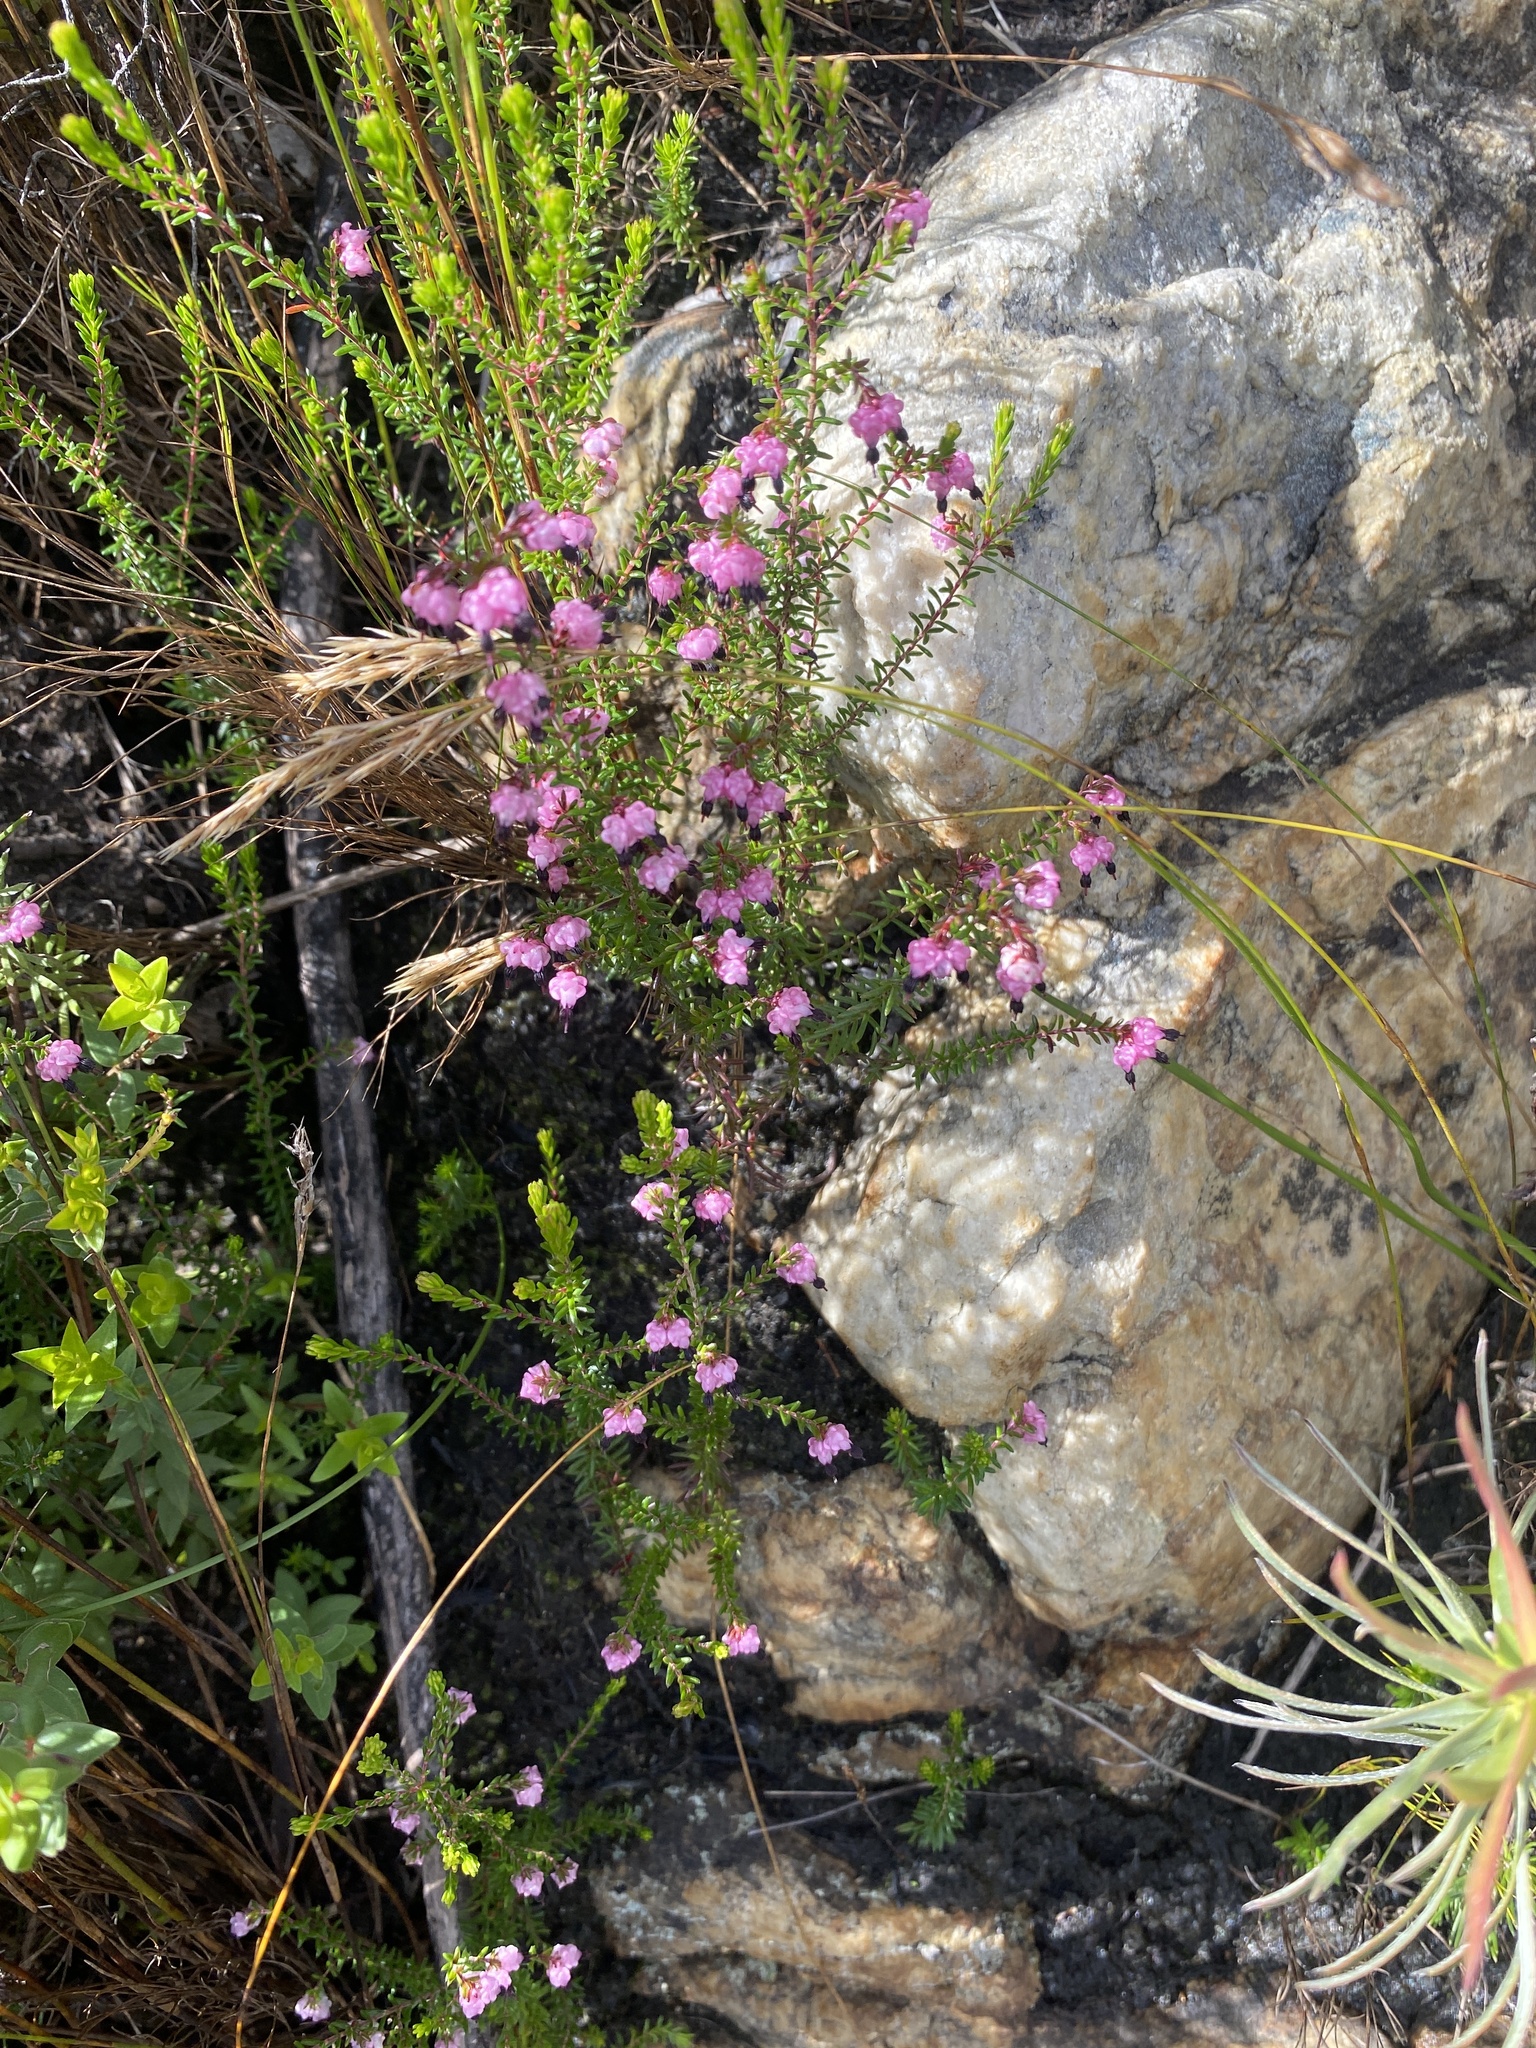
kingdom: Plantae
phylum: Tracheophyta
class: Magnoliopsida
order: Ericales
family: Ericaceae
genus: Erica
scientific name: Erica spumosa
